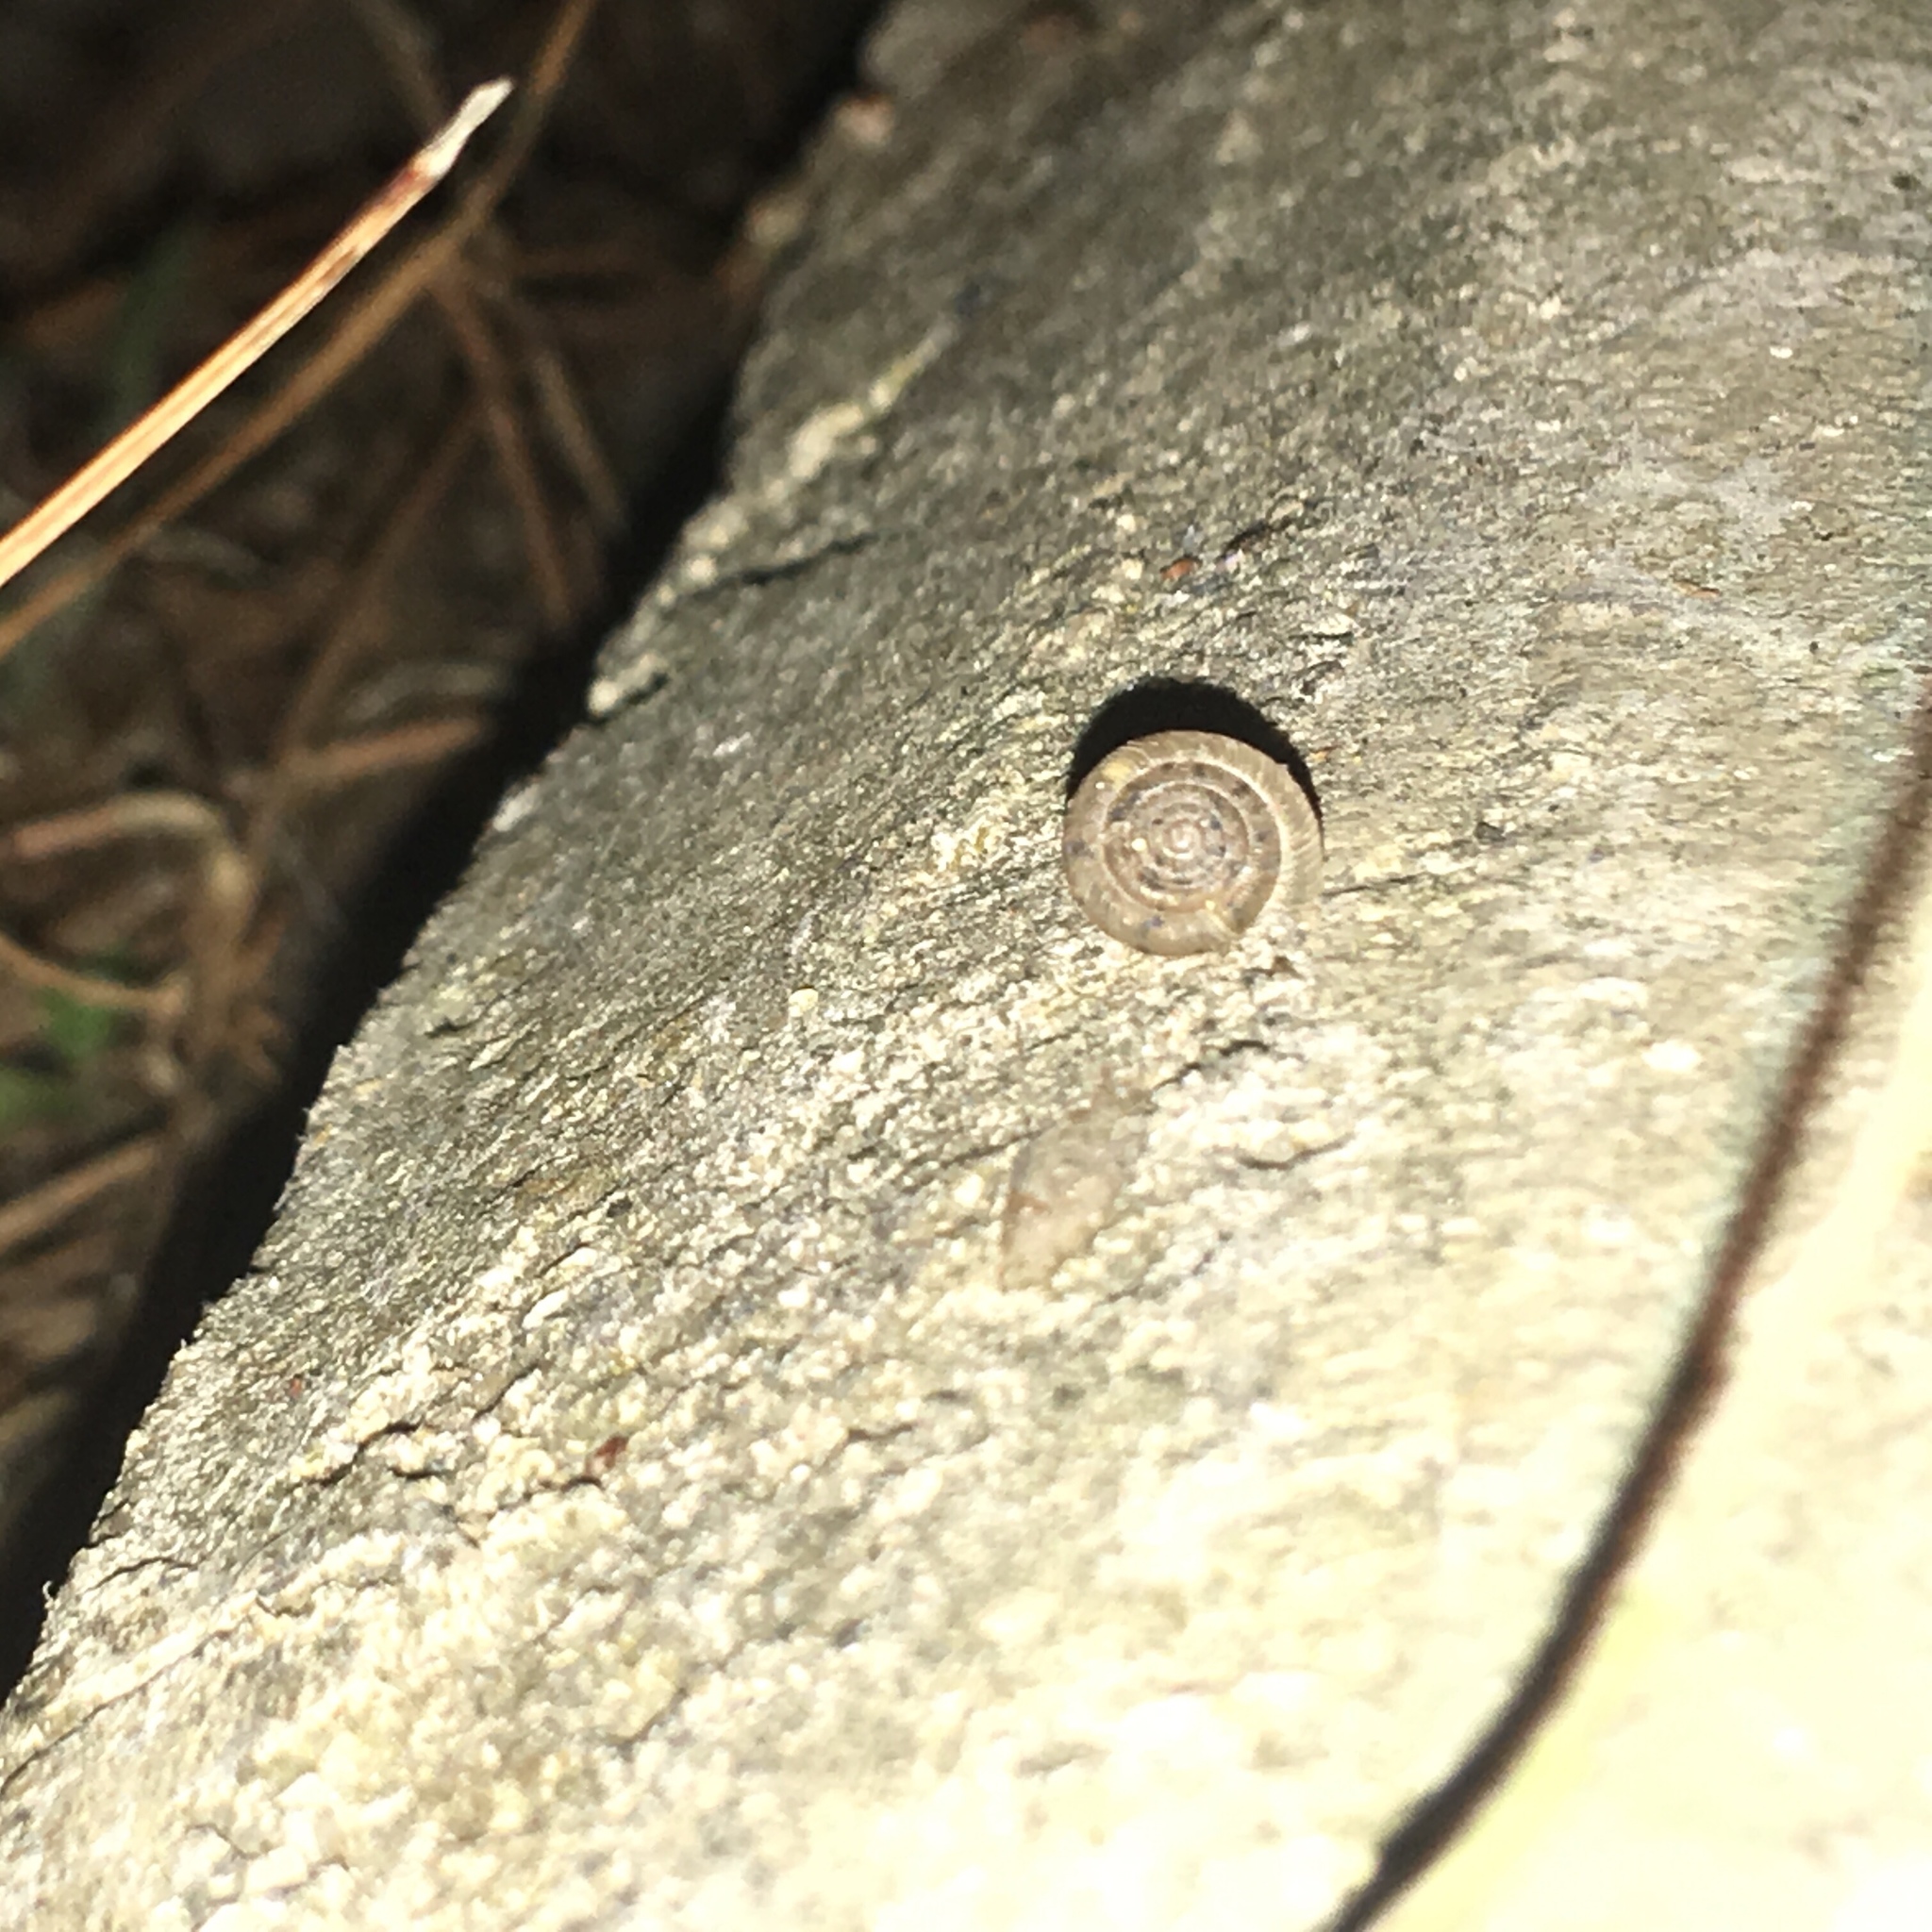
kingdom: Animalia
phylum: Mollusca
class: Gastropoda
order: Stylommatophora
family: Polygyridae
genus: Polygyra
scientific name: Polygyra cereolus
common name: Southern flatcone snail
